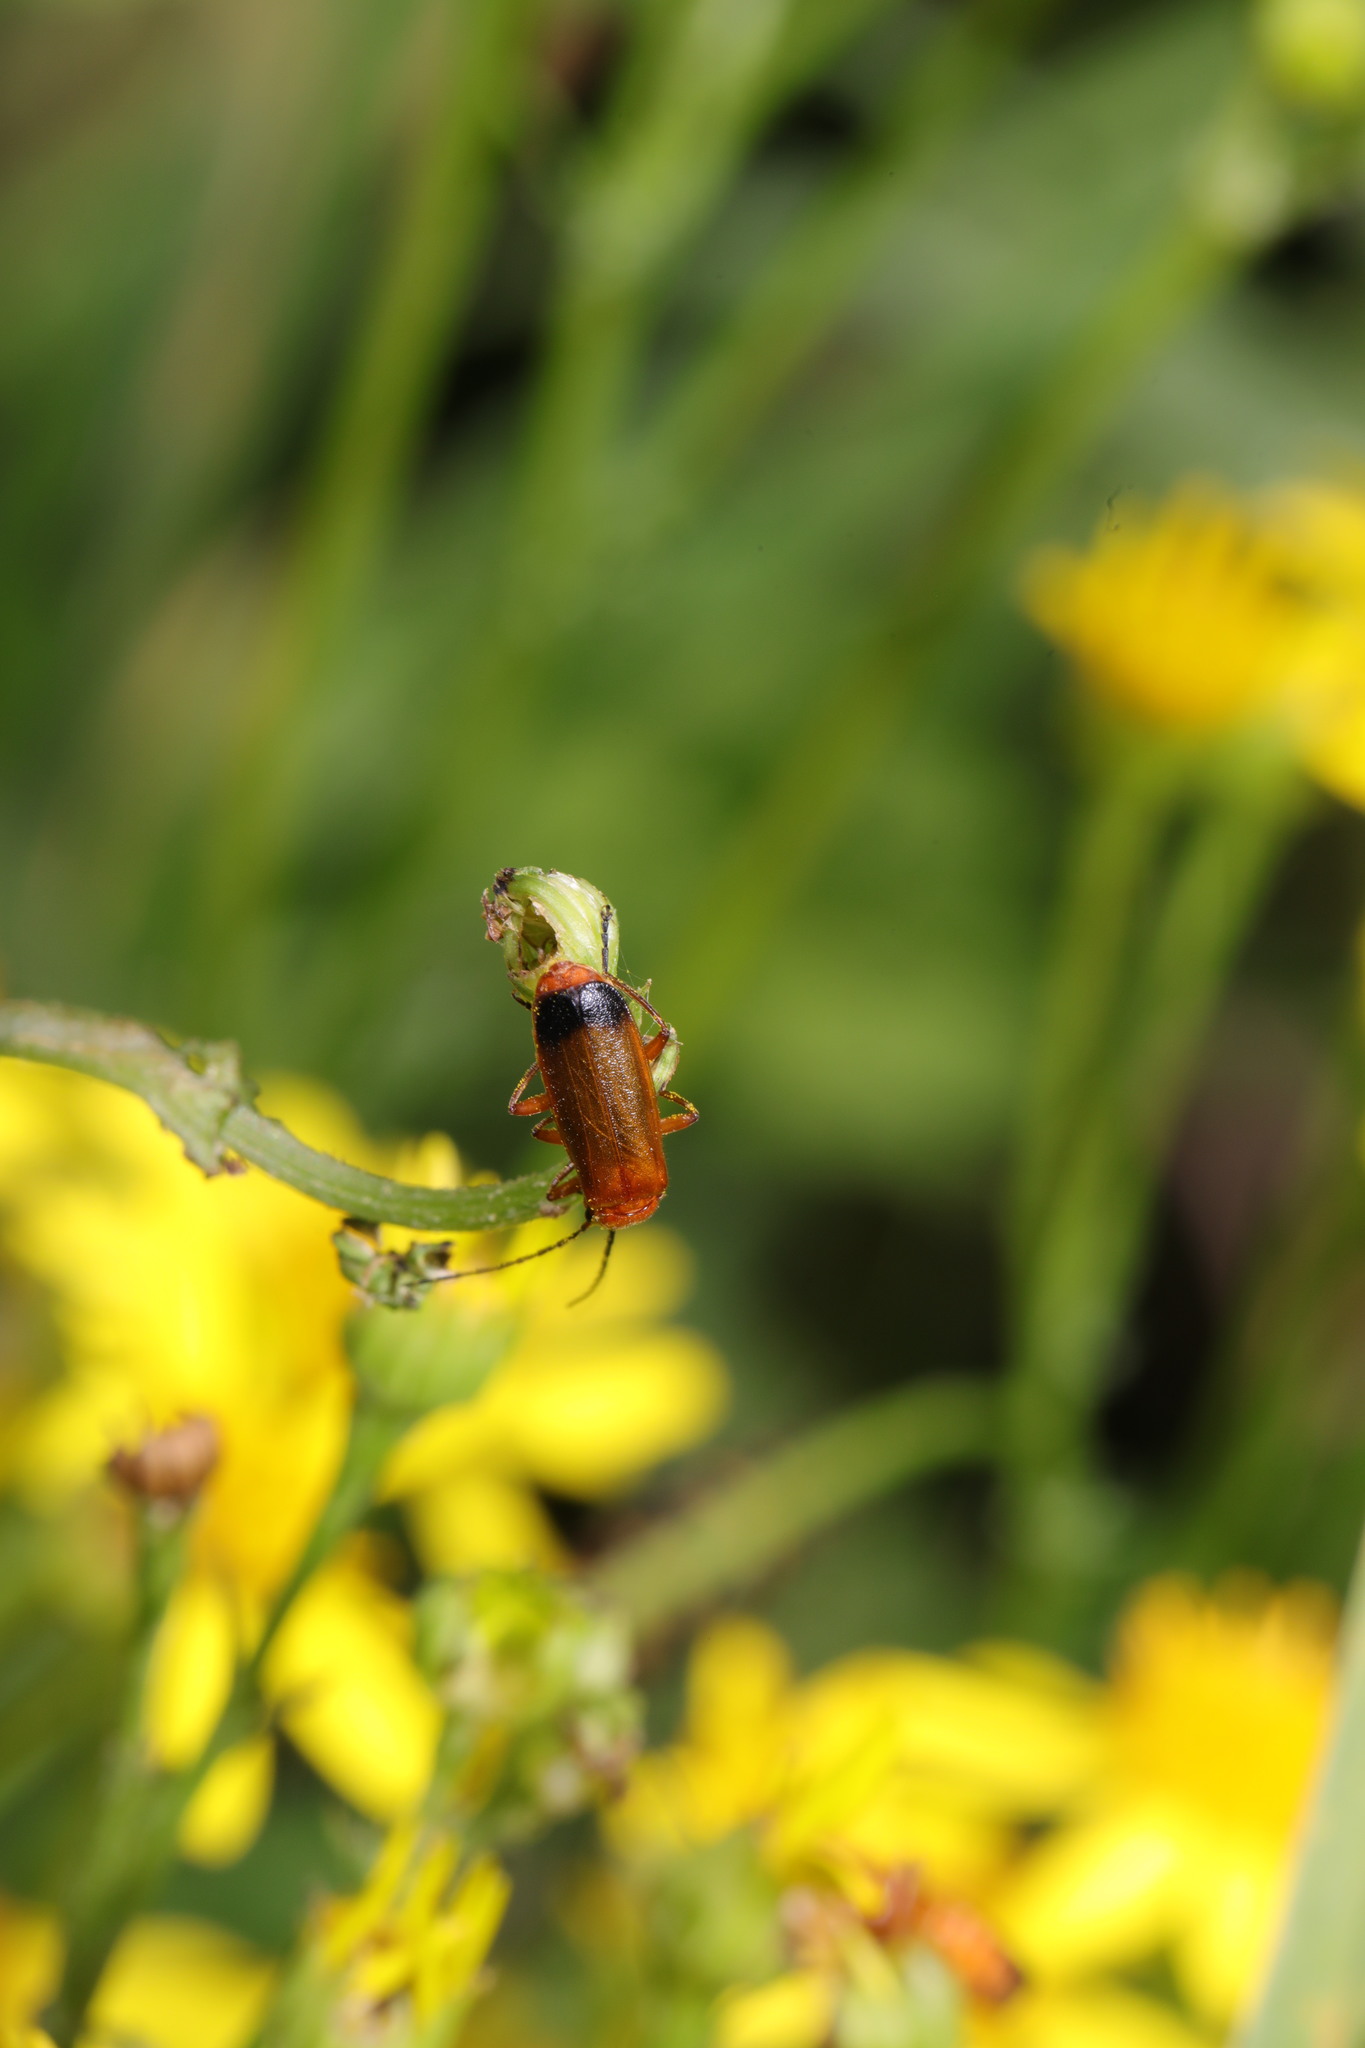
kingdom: Animalia
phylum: Arthropoda
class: Insecta
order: Coleoptera
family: Cantharidae
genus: Rhagonycha
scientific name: Rhagonycha fulva
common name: Common red soldier beetle
